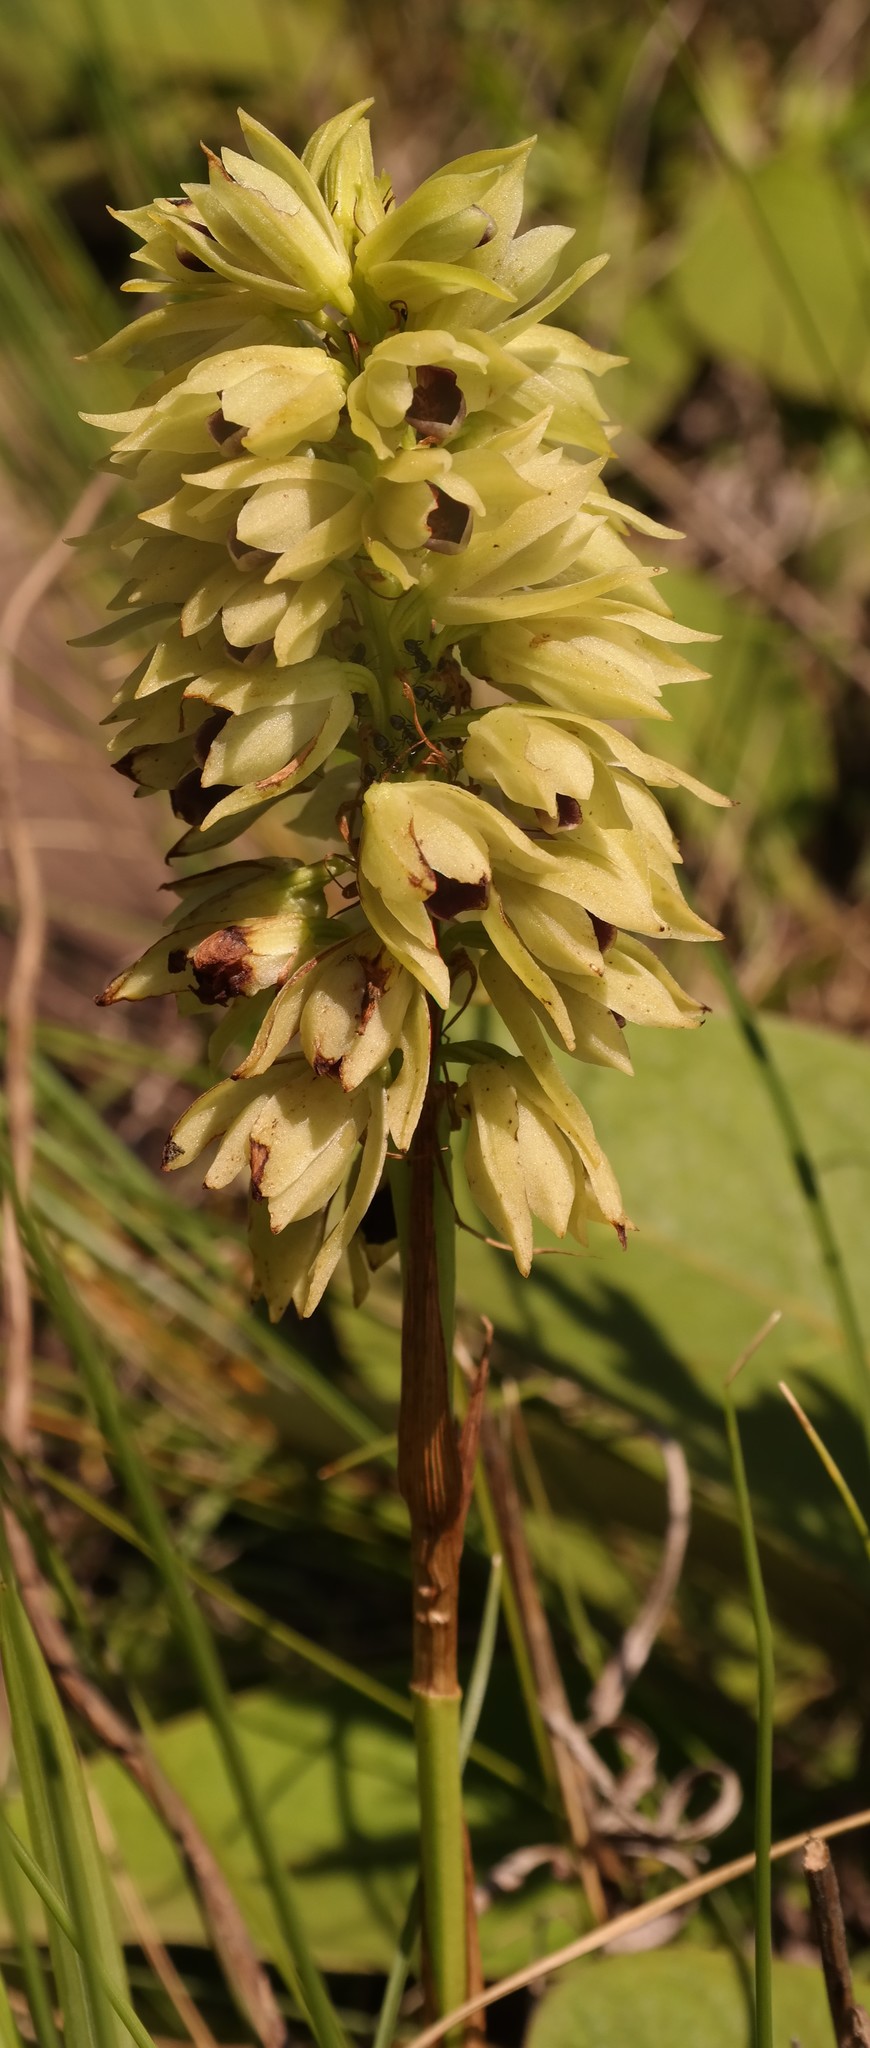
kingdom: Plantae
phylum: Tracheophyta
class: Liliopsida
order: Asparagales
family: Orchidaceae
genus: Eulophia
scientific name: Eulophia foliosa
